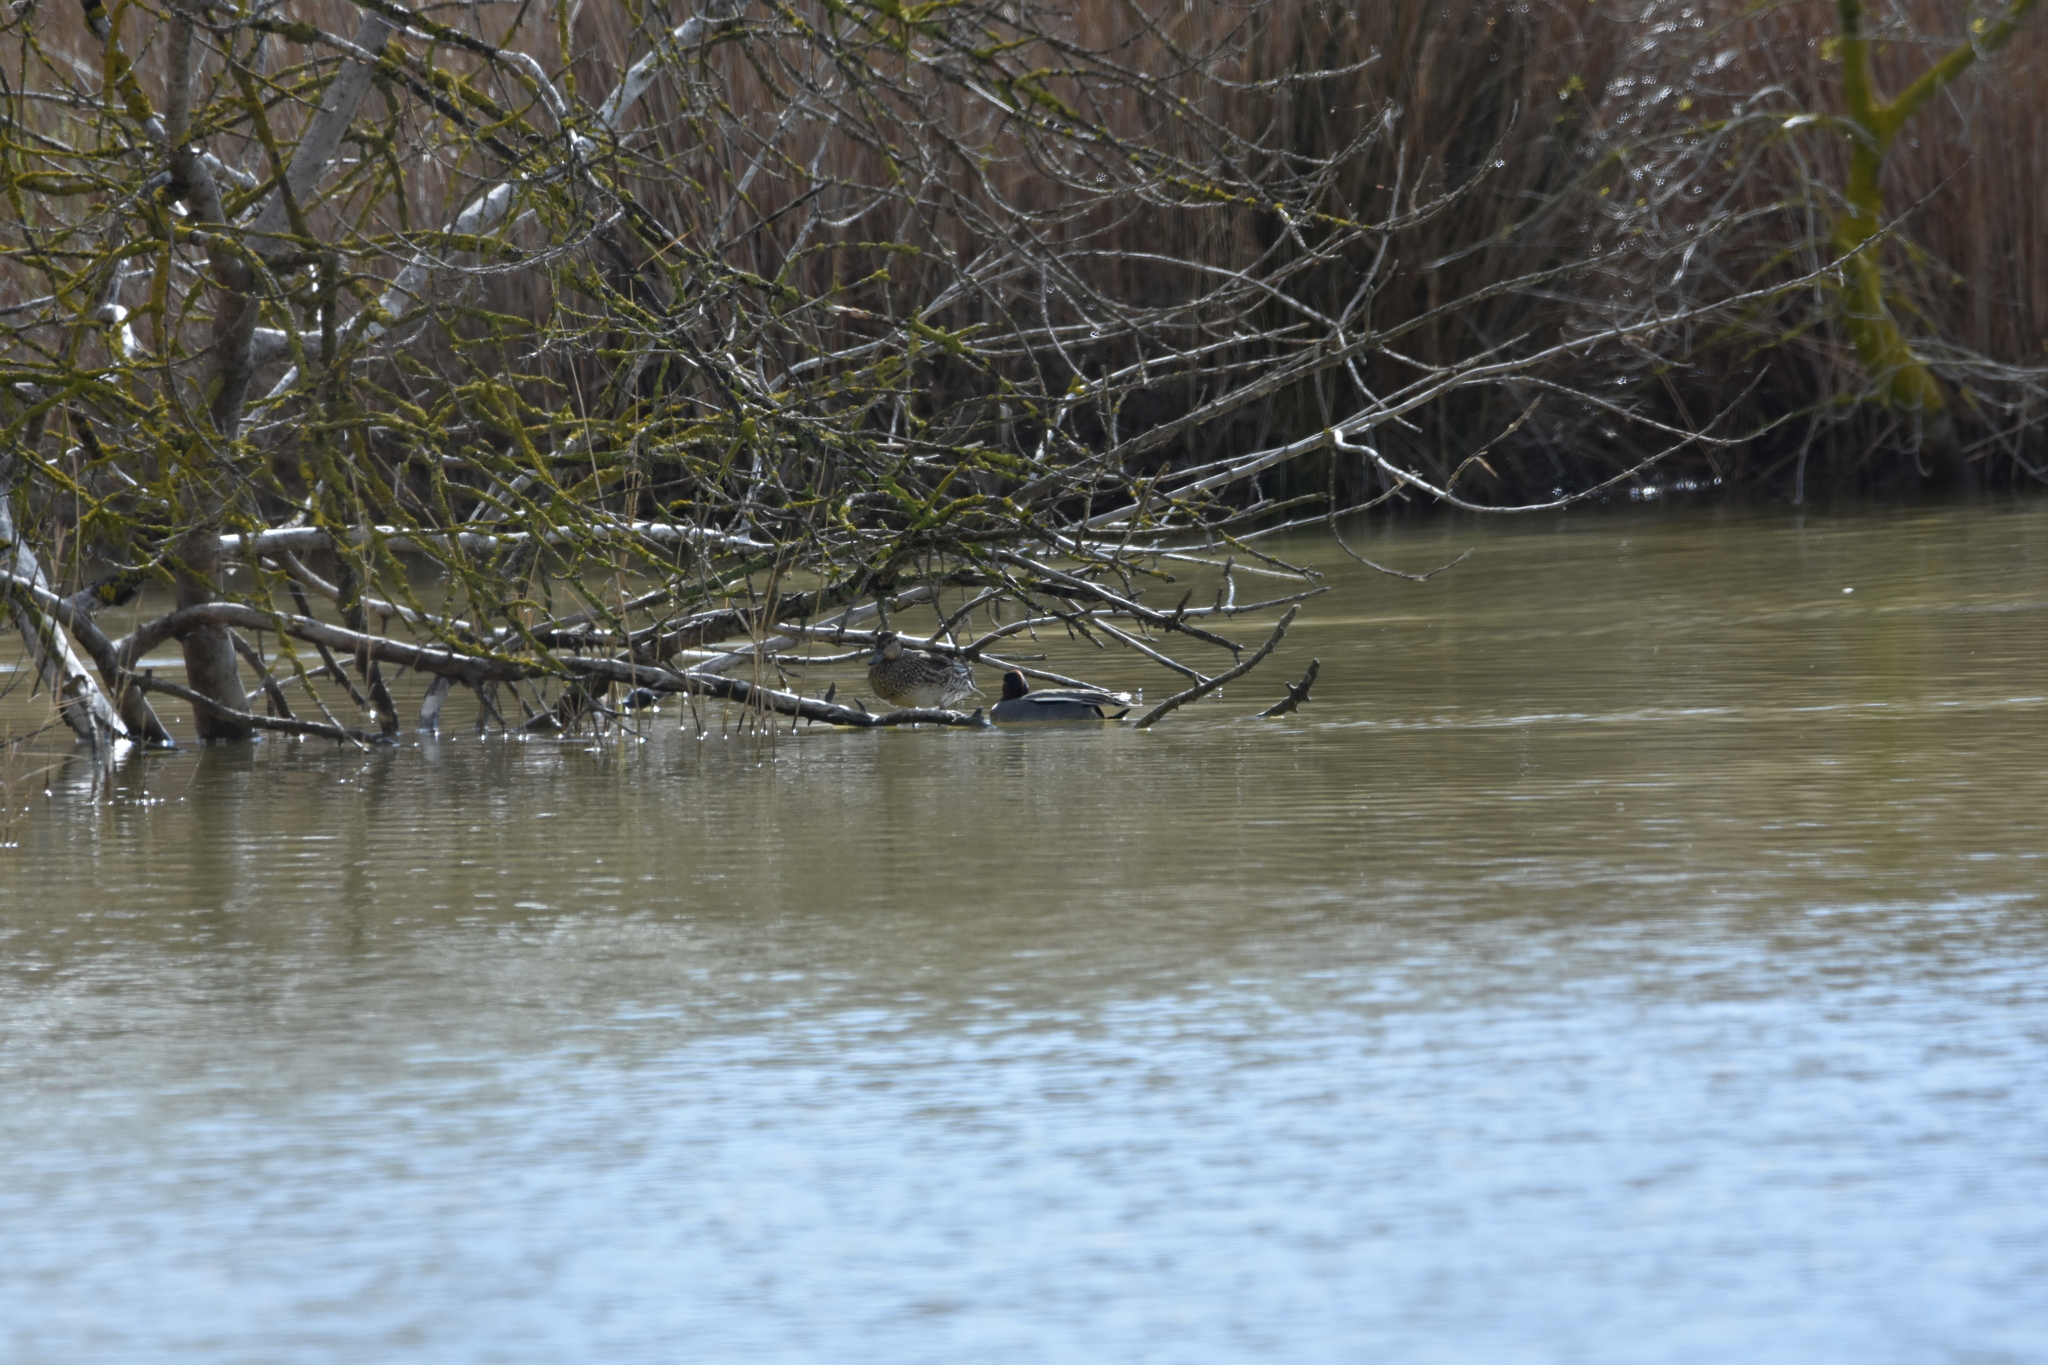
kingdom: Animalia
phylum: Chordata
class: Aves
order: Anseriformes
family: Anatidae
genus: Anas
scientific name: Anas crecca
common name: Eurasian teal
